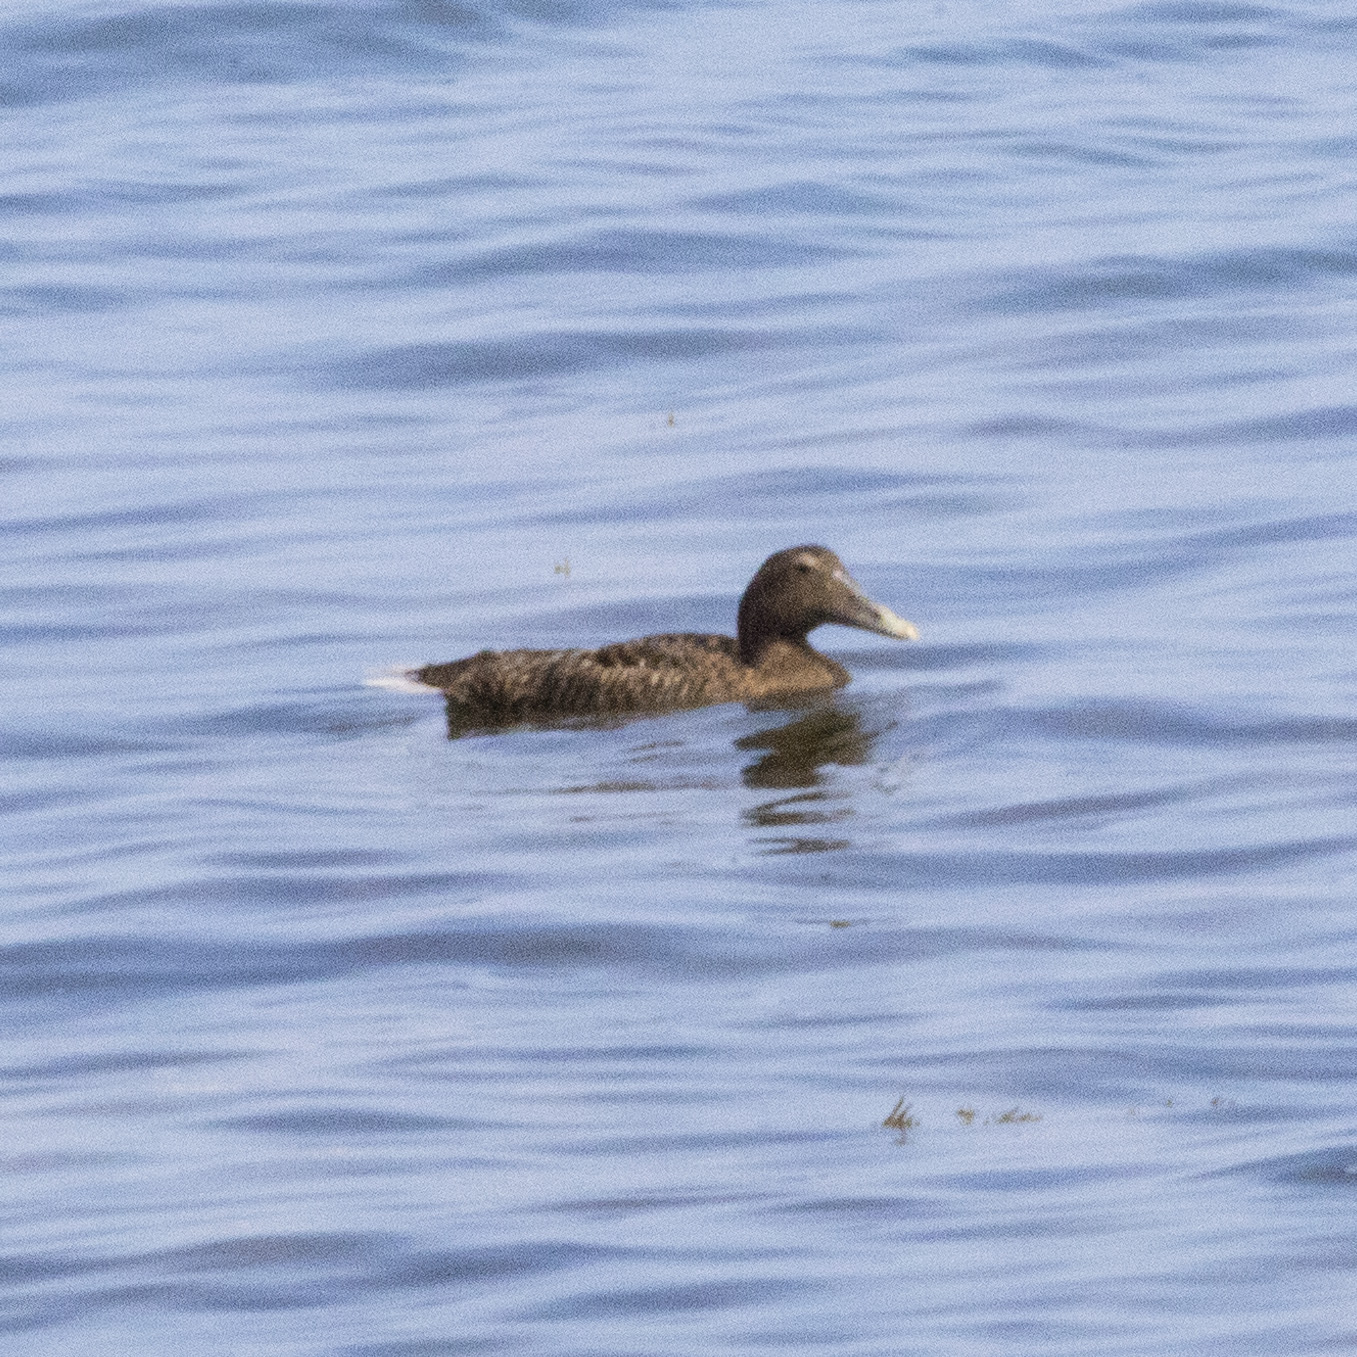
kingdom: Animalia
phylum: Chordata
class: Aves
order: Anseriformes
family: Anatidae
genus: Somateria
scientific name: Somateria mollissima
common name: Common eider
